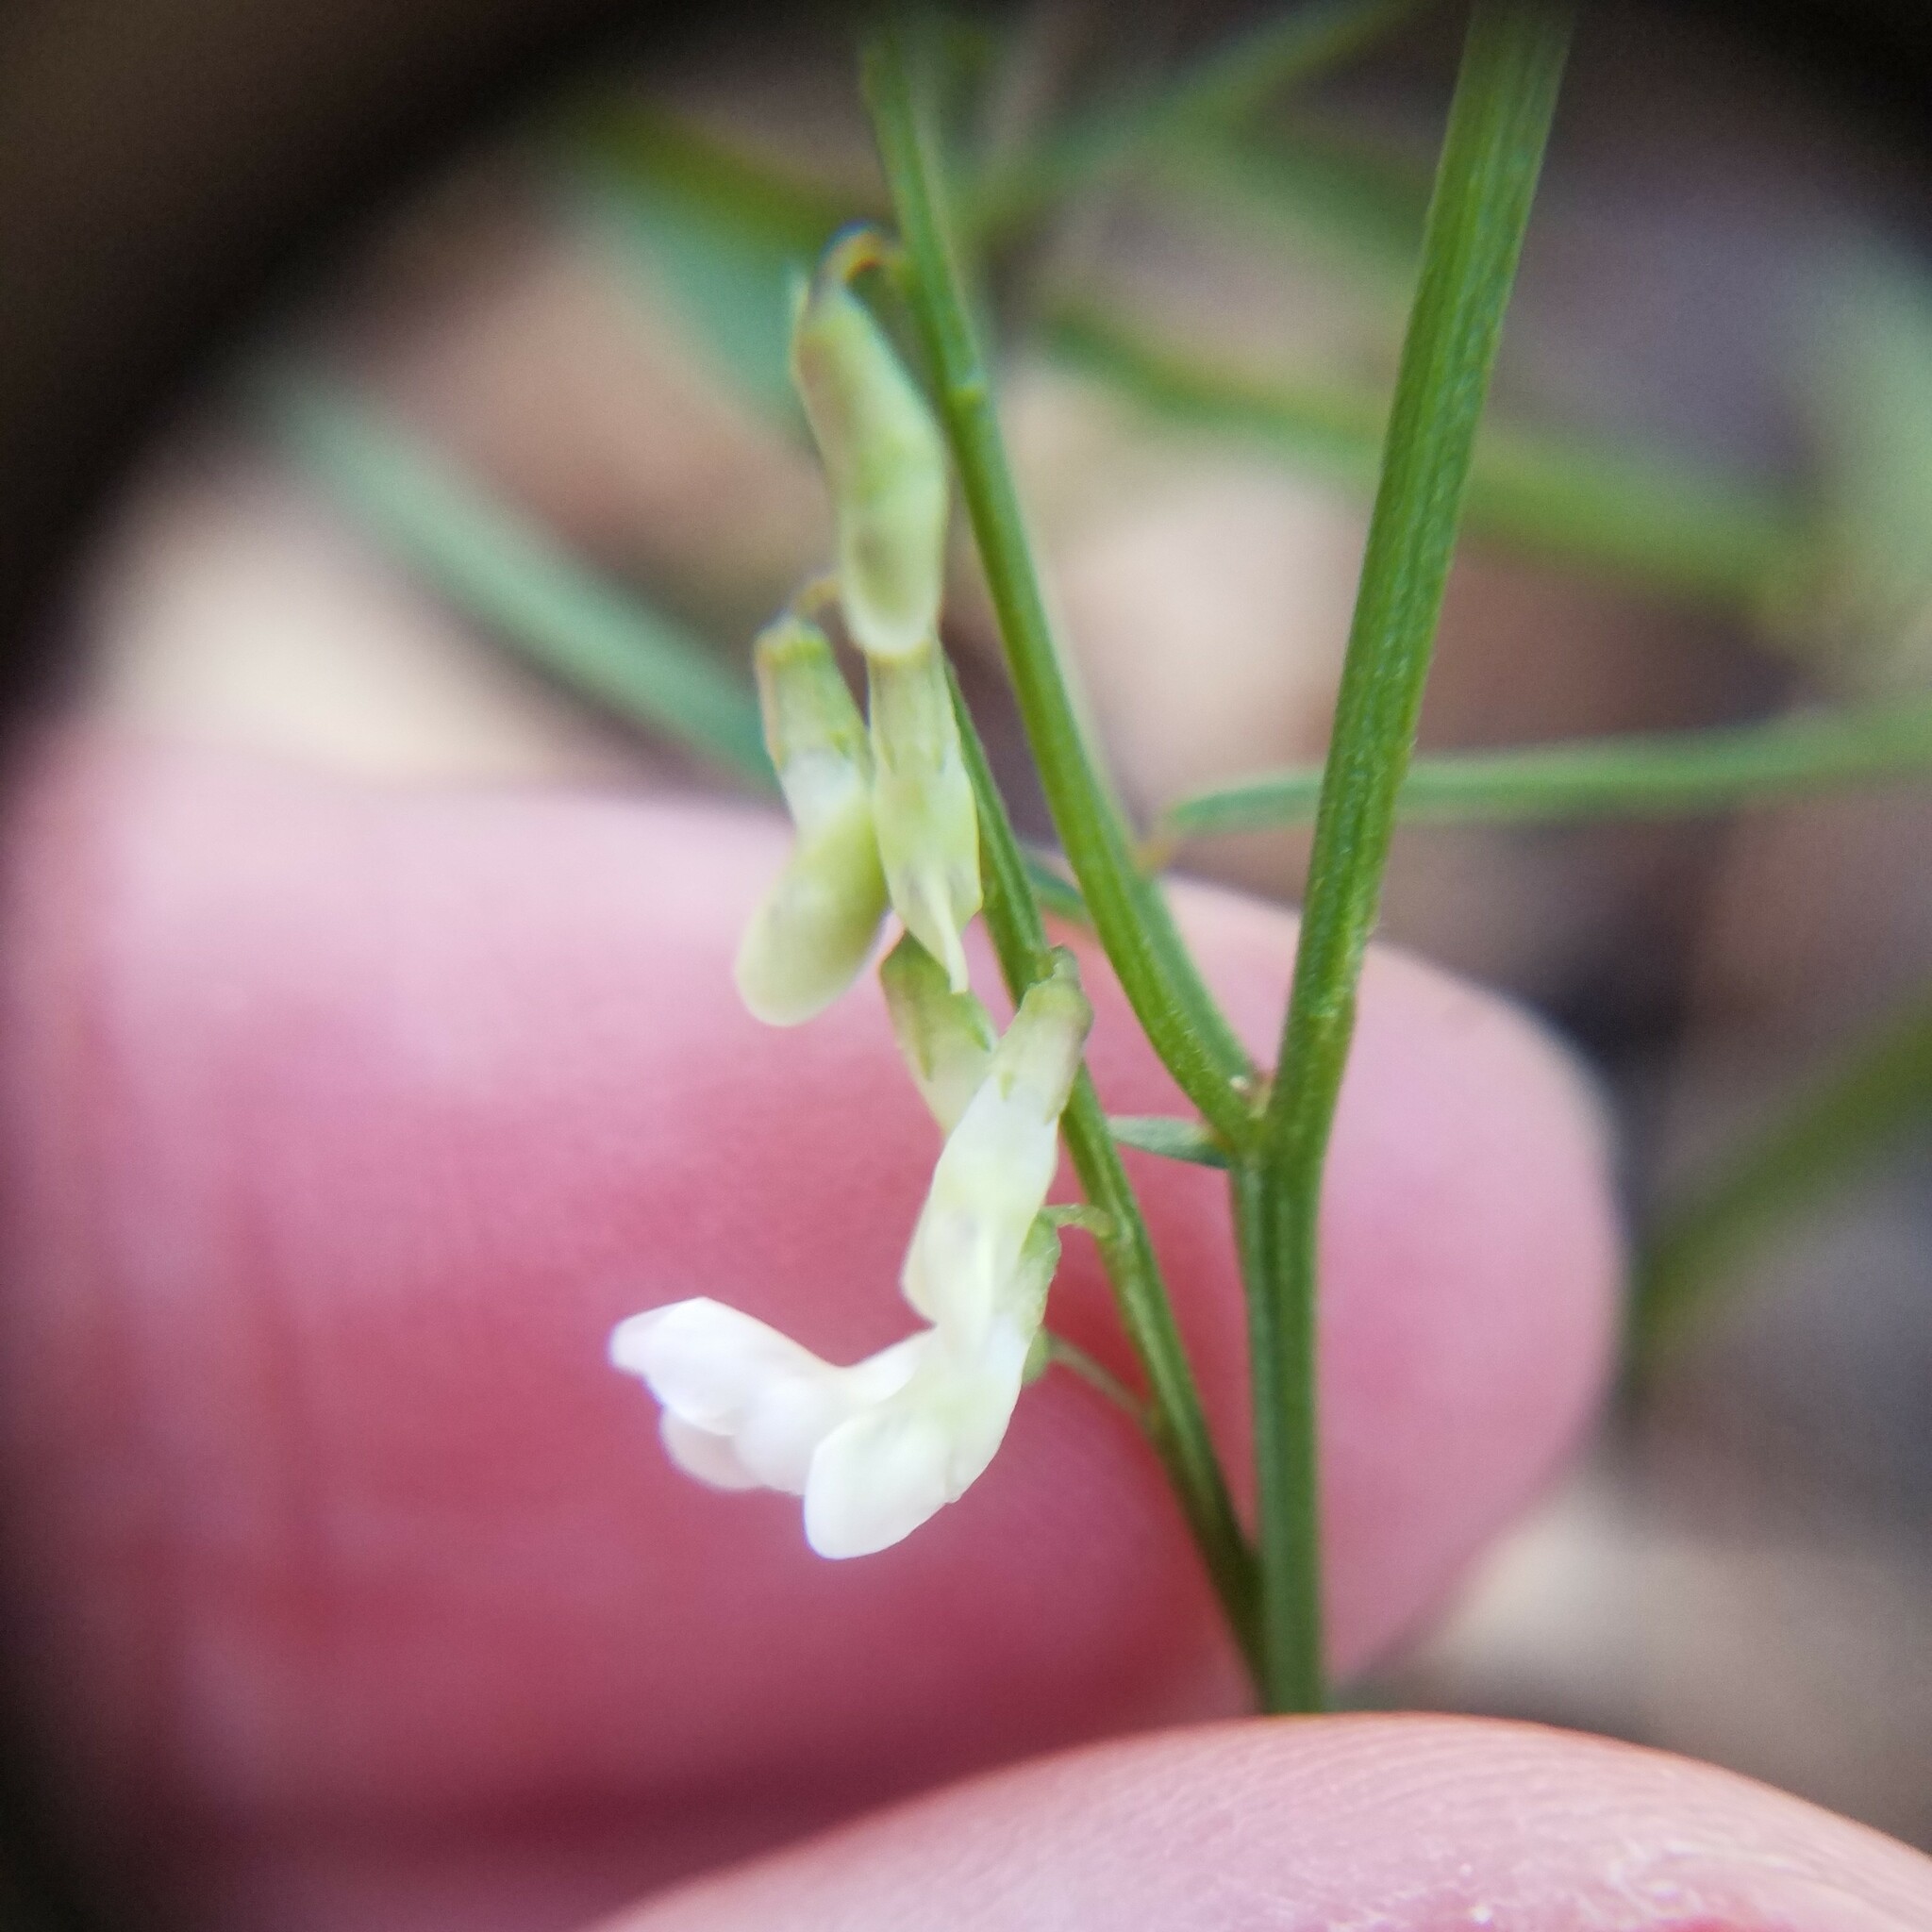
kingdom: Plantae
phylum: Tracheophyta
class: Magnoliopsida
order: Fabales
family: Fabaceae
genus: Vicia
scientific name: Vicia caroliniana
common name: Carolina vetch
